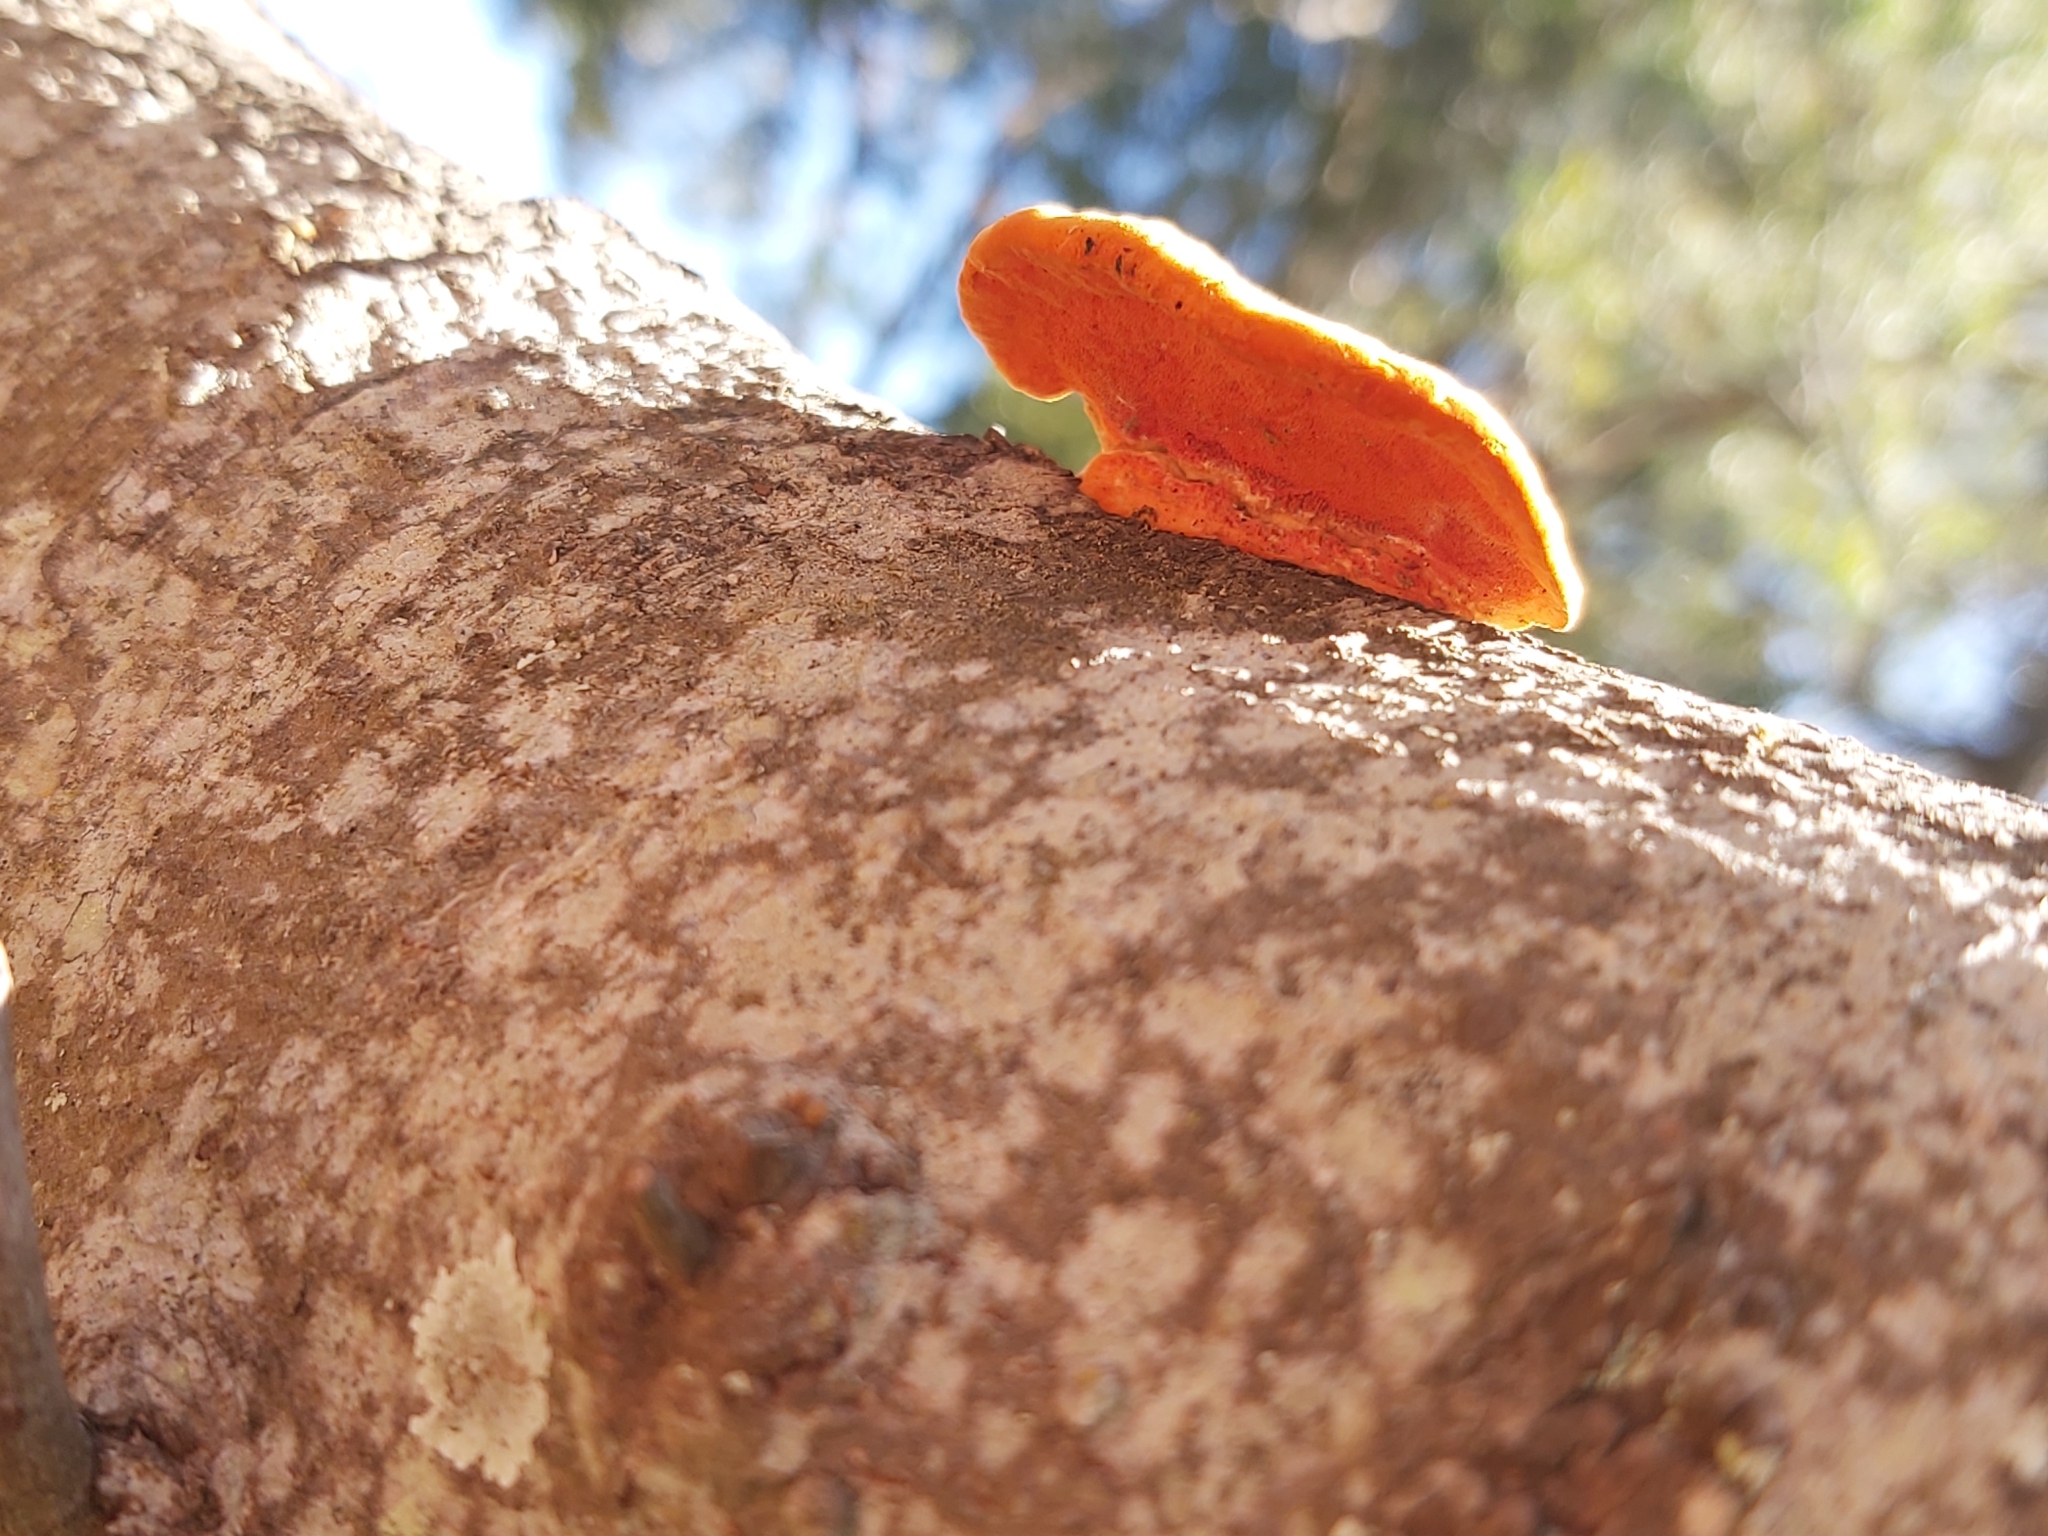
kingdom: Fungi
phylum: Basidiomycota
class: Agaricomycetes
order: Polyporales
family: Polyporaceae
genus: Trametes
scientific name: Trametes coccinea
